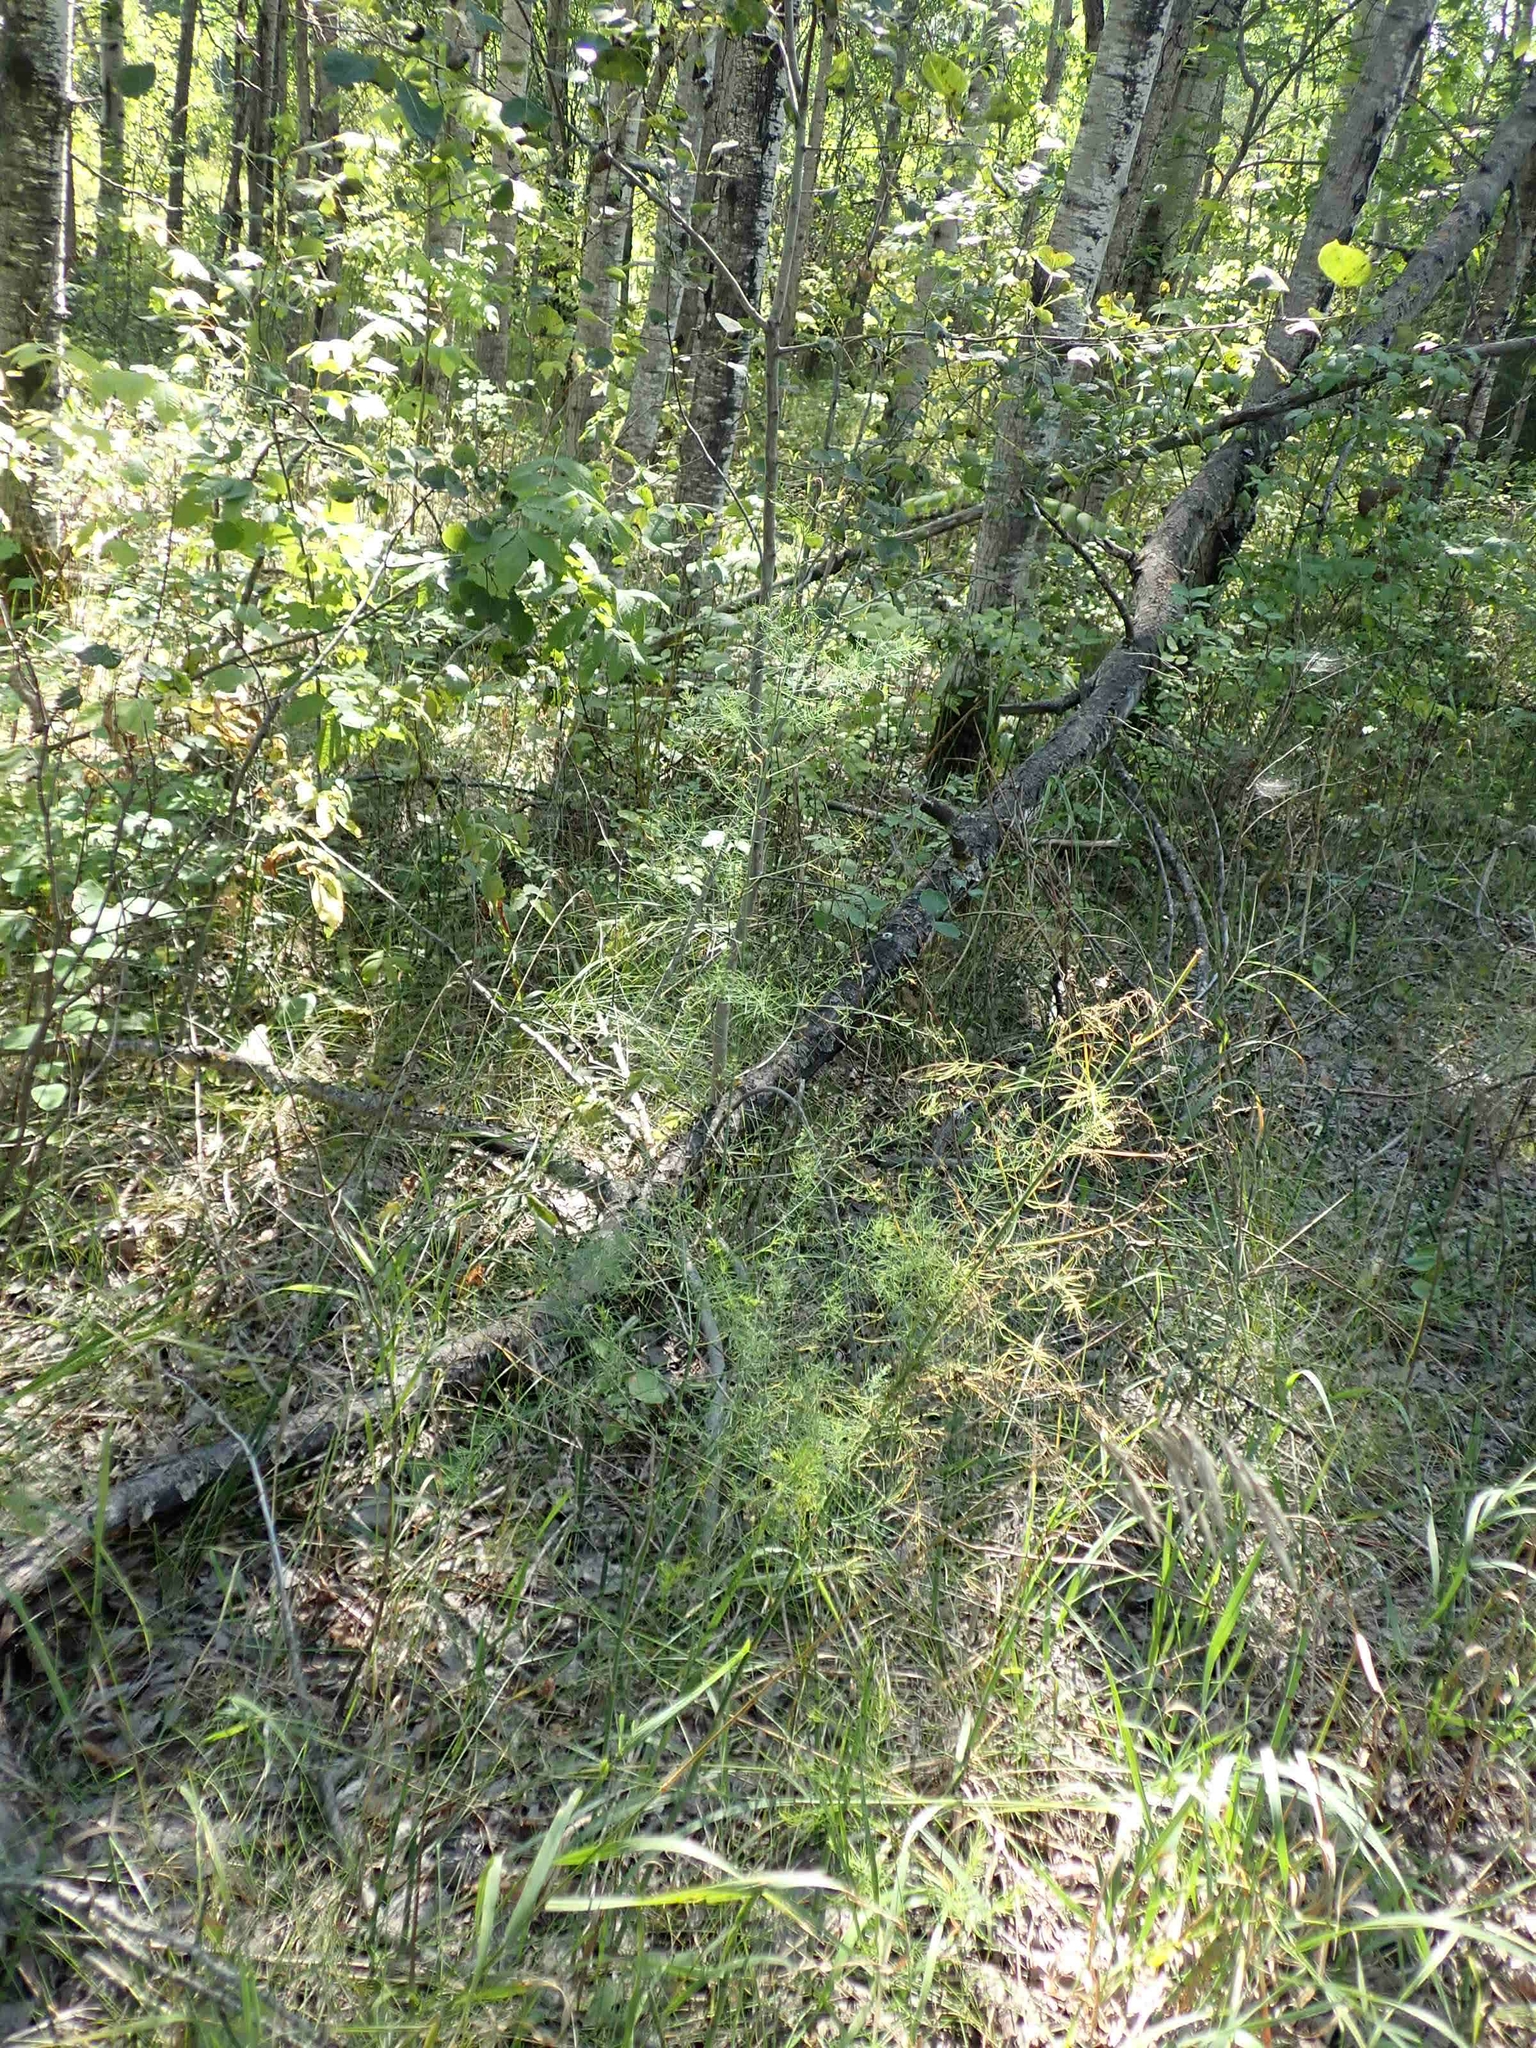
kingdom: Plantae
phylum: Tracheophyta
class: Liliopsida
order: Asparagales
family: Asparagaceae
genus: Asparagus
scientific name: Asparagus officinalis
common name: Garden asparagus
